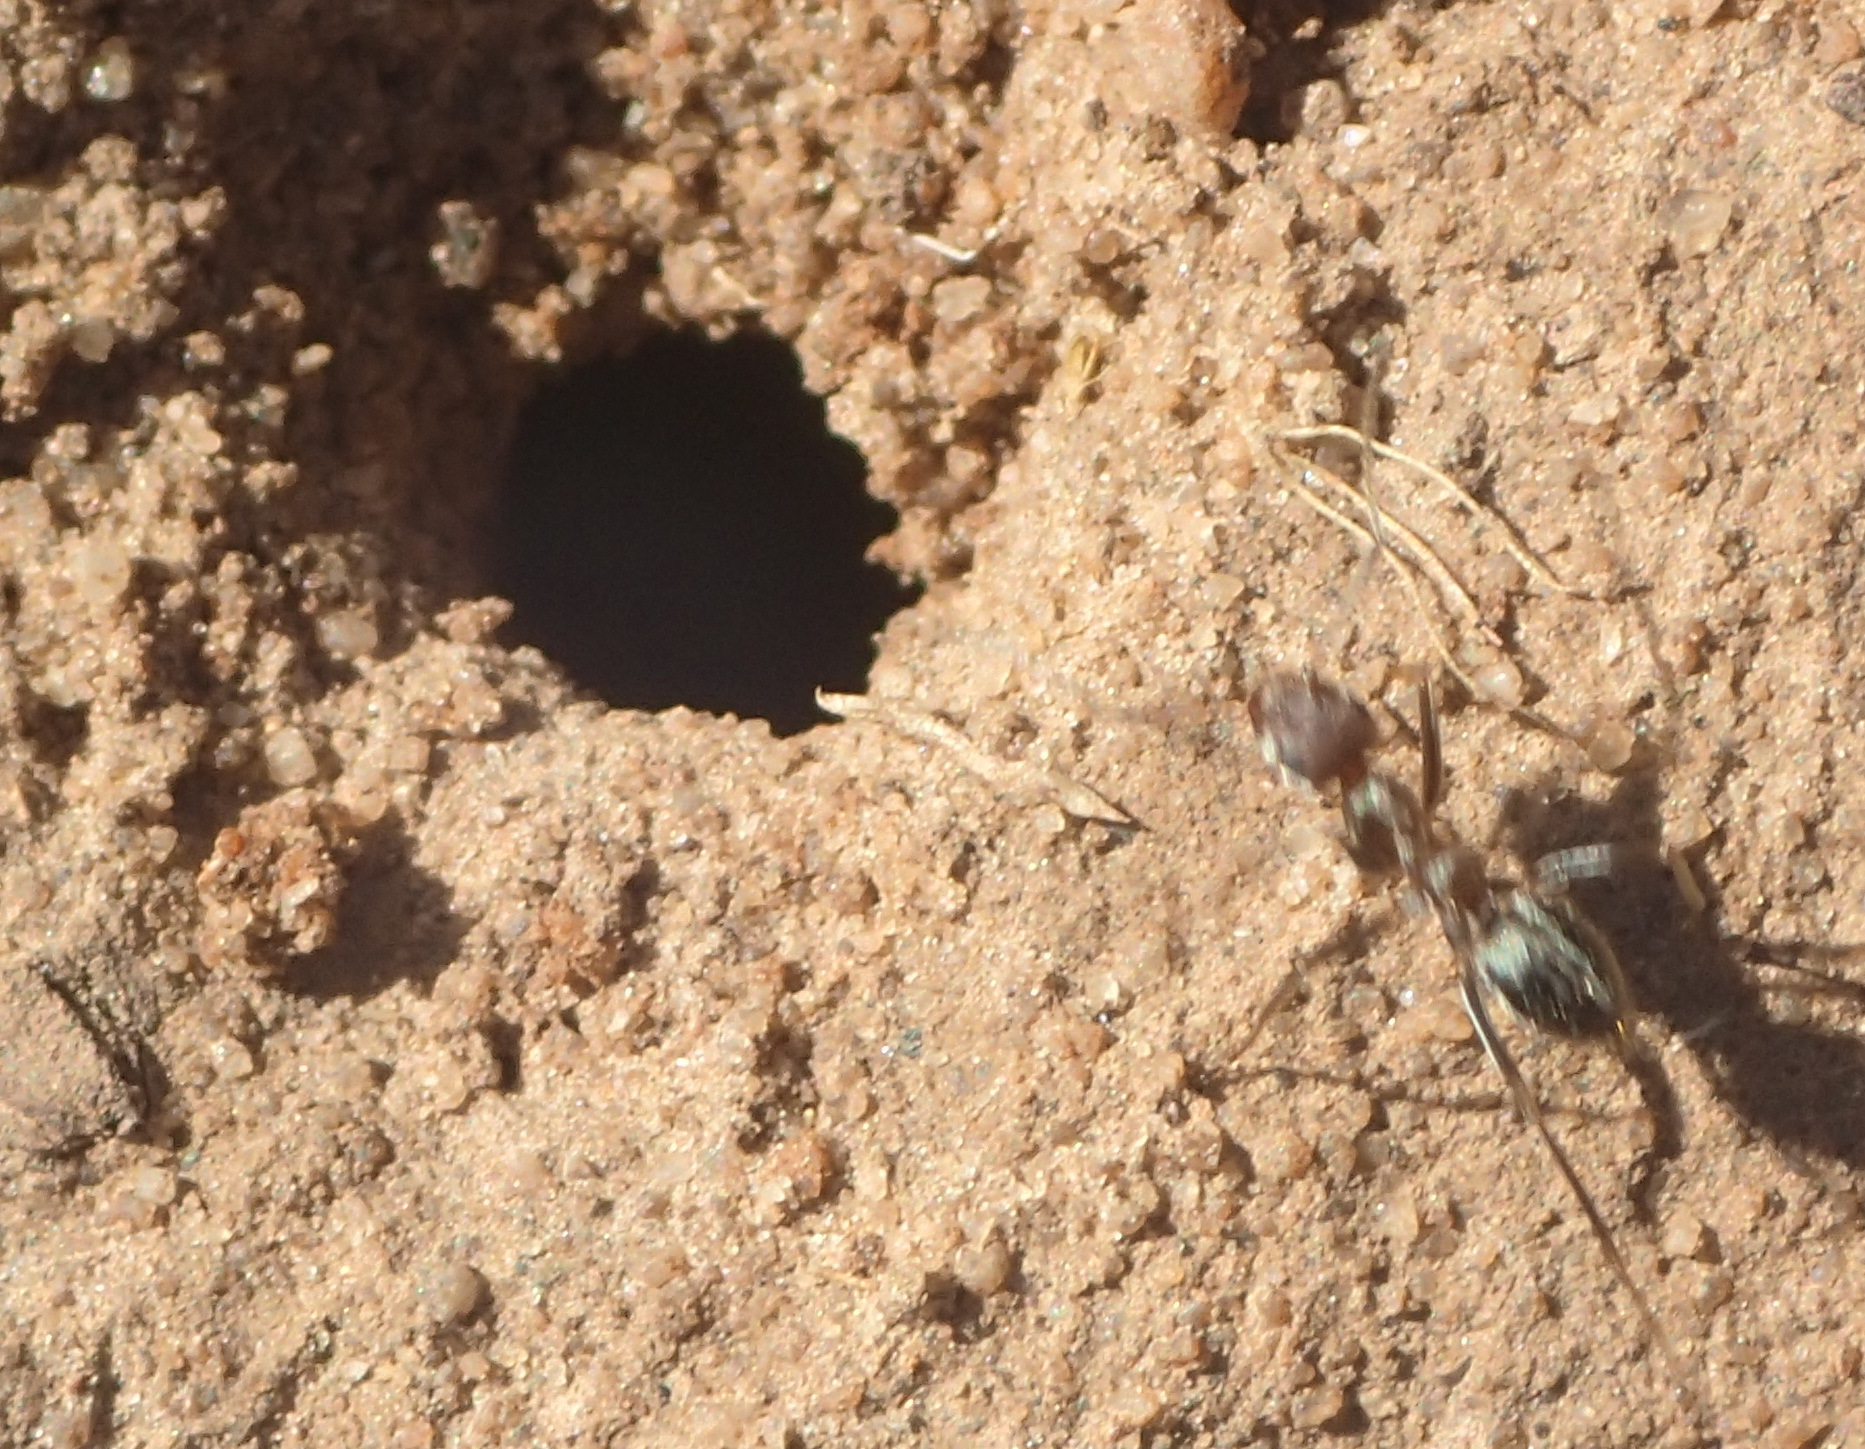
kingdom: Animalia
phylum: Arthropoda
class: Insecta
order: Hymenoptera
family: Formicidae
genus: Anoplolepis
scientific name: Anoplolepis custodiens
